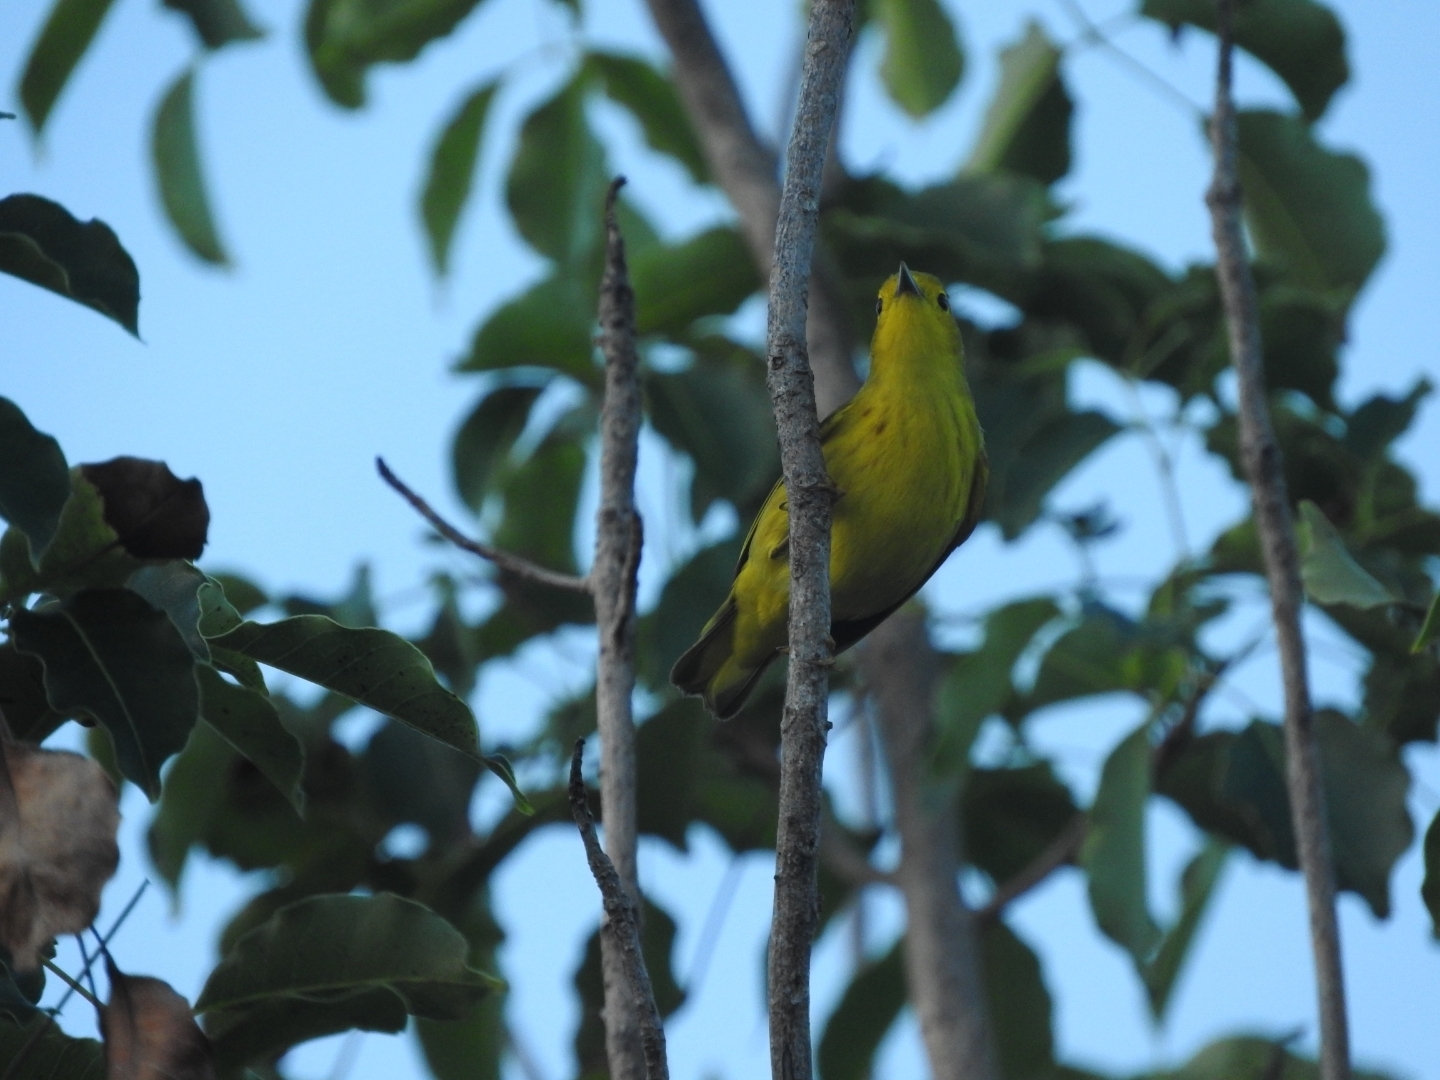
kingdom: Animalia
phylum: Chordata
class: Aves
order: Passeriformes
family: Parulidae
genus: Setophaga
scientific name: Setophaga petechia
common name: Yellow warbler
